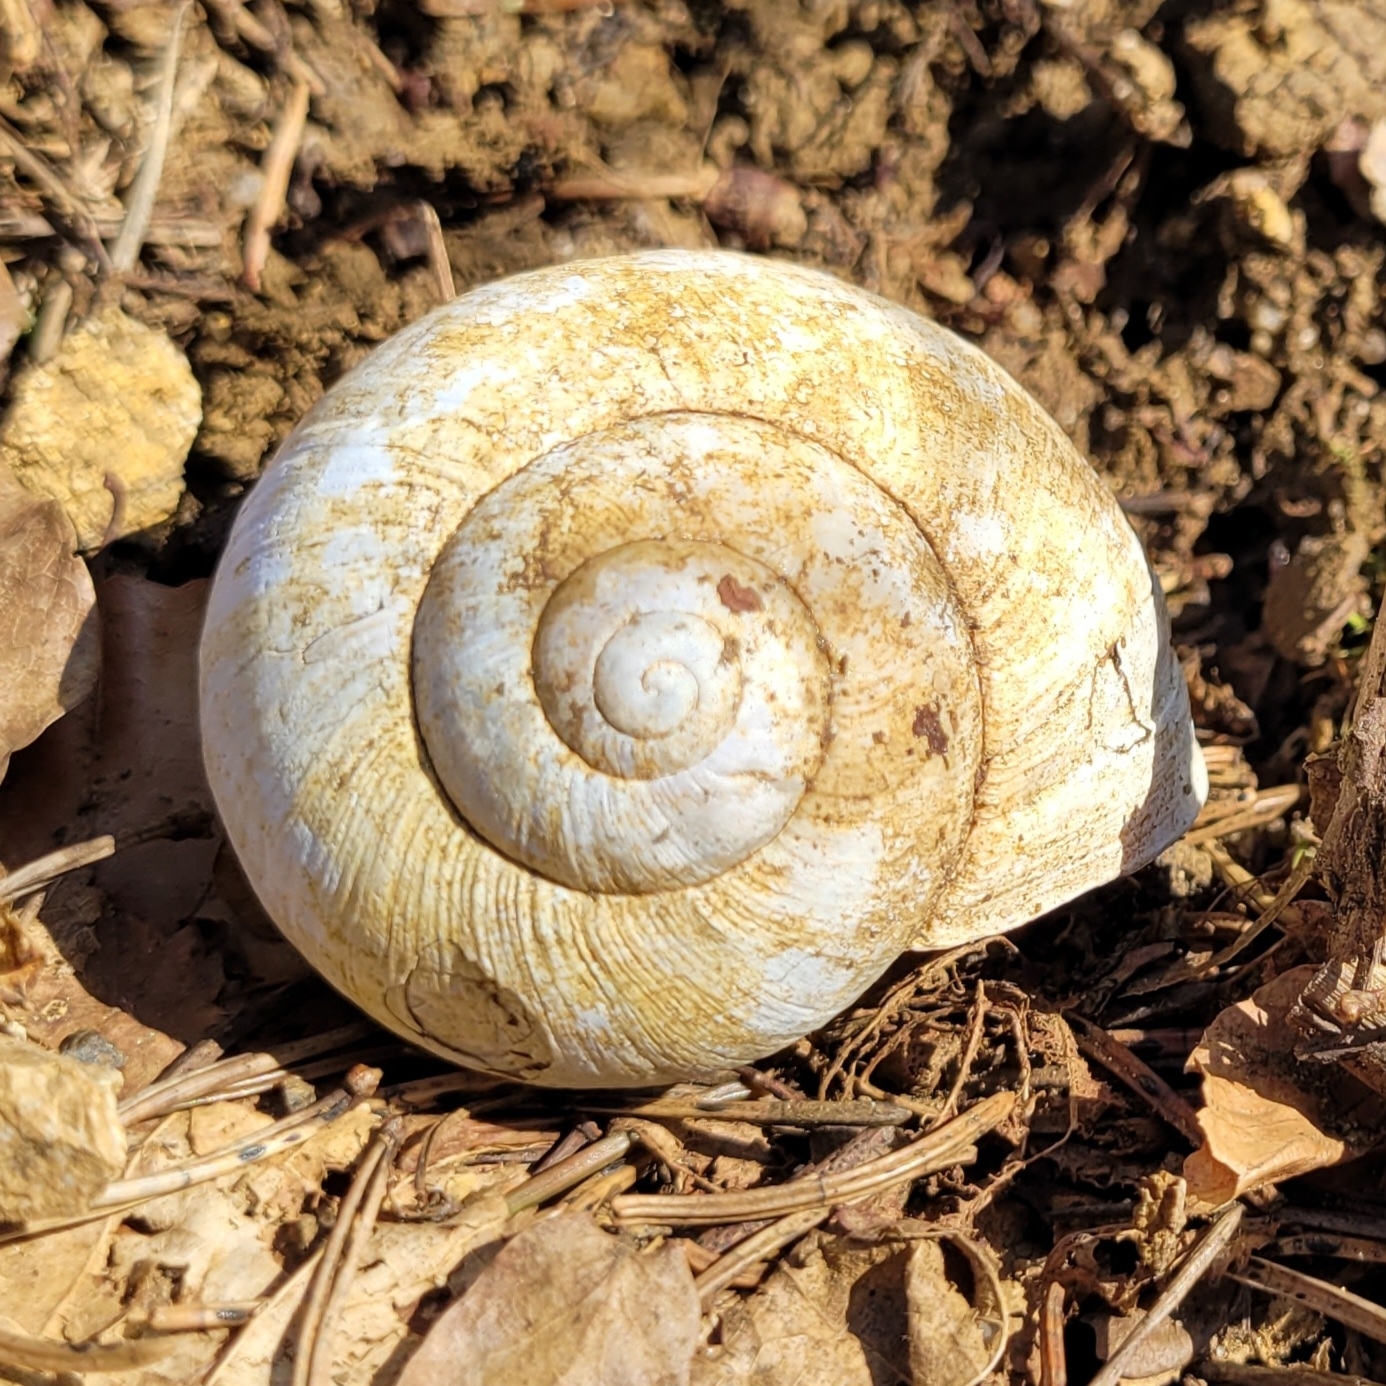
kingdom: Animalia
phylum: Mollusca
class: Gastropoda
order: Stylommatophora
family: Helicidae
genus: Helix
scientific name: Helix pomatia
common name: Roman snail
